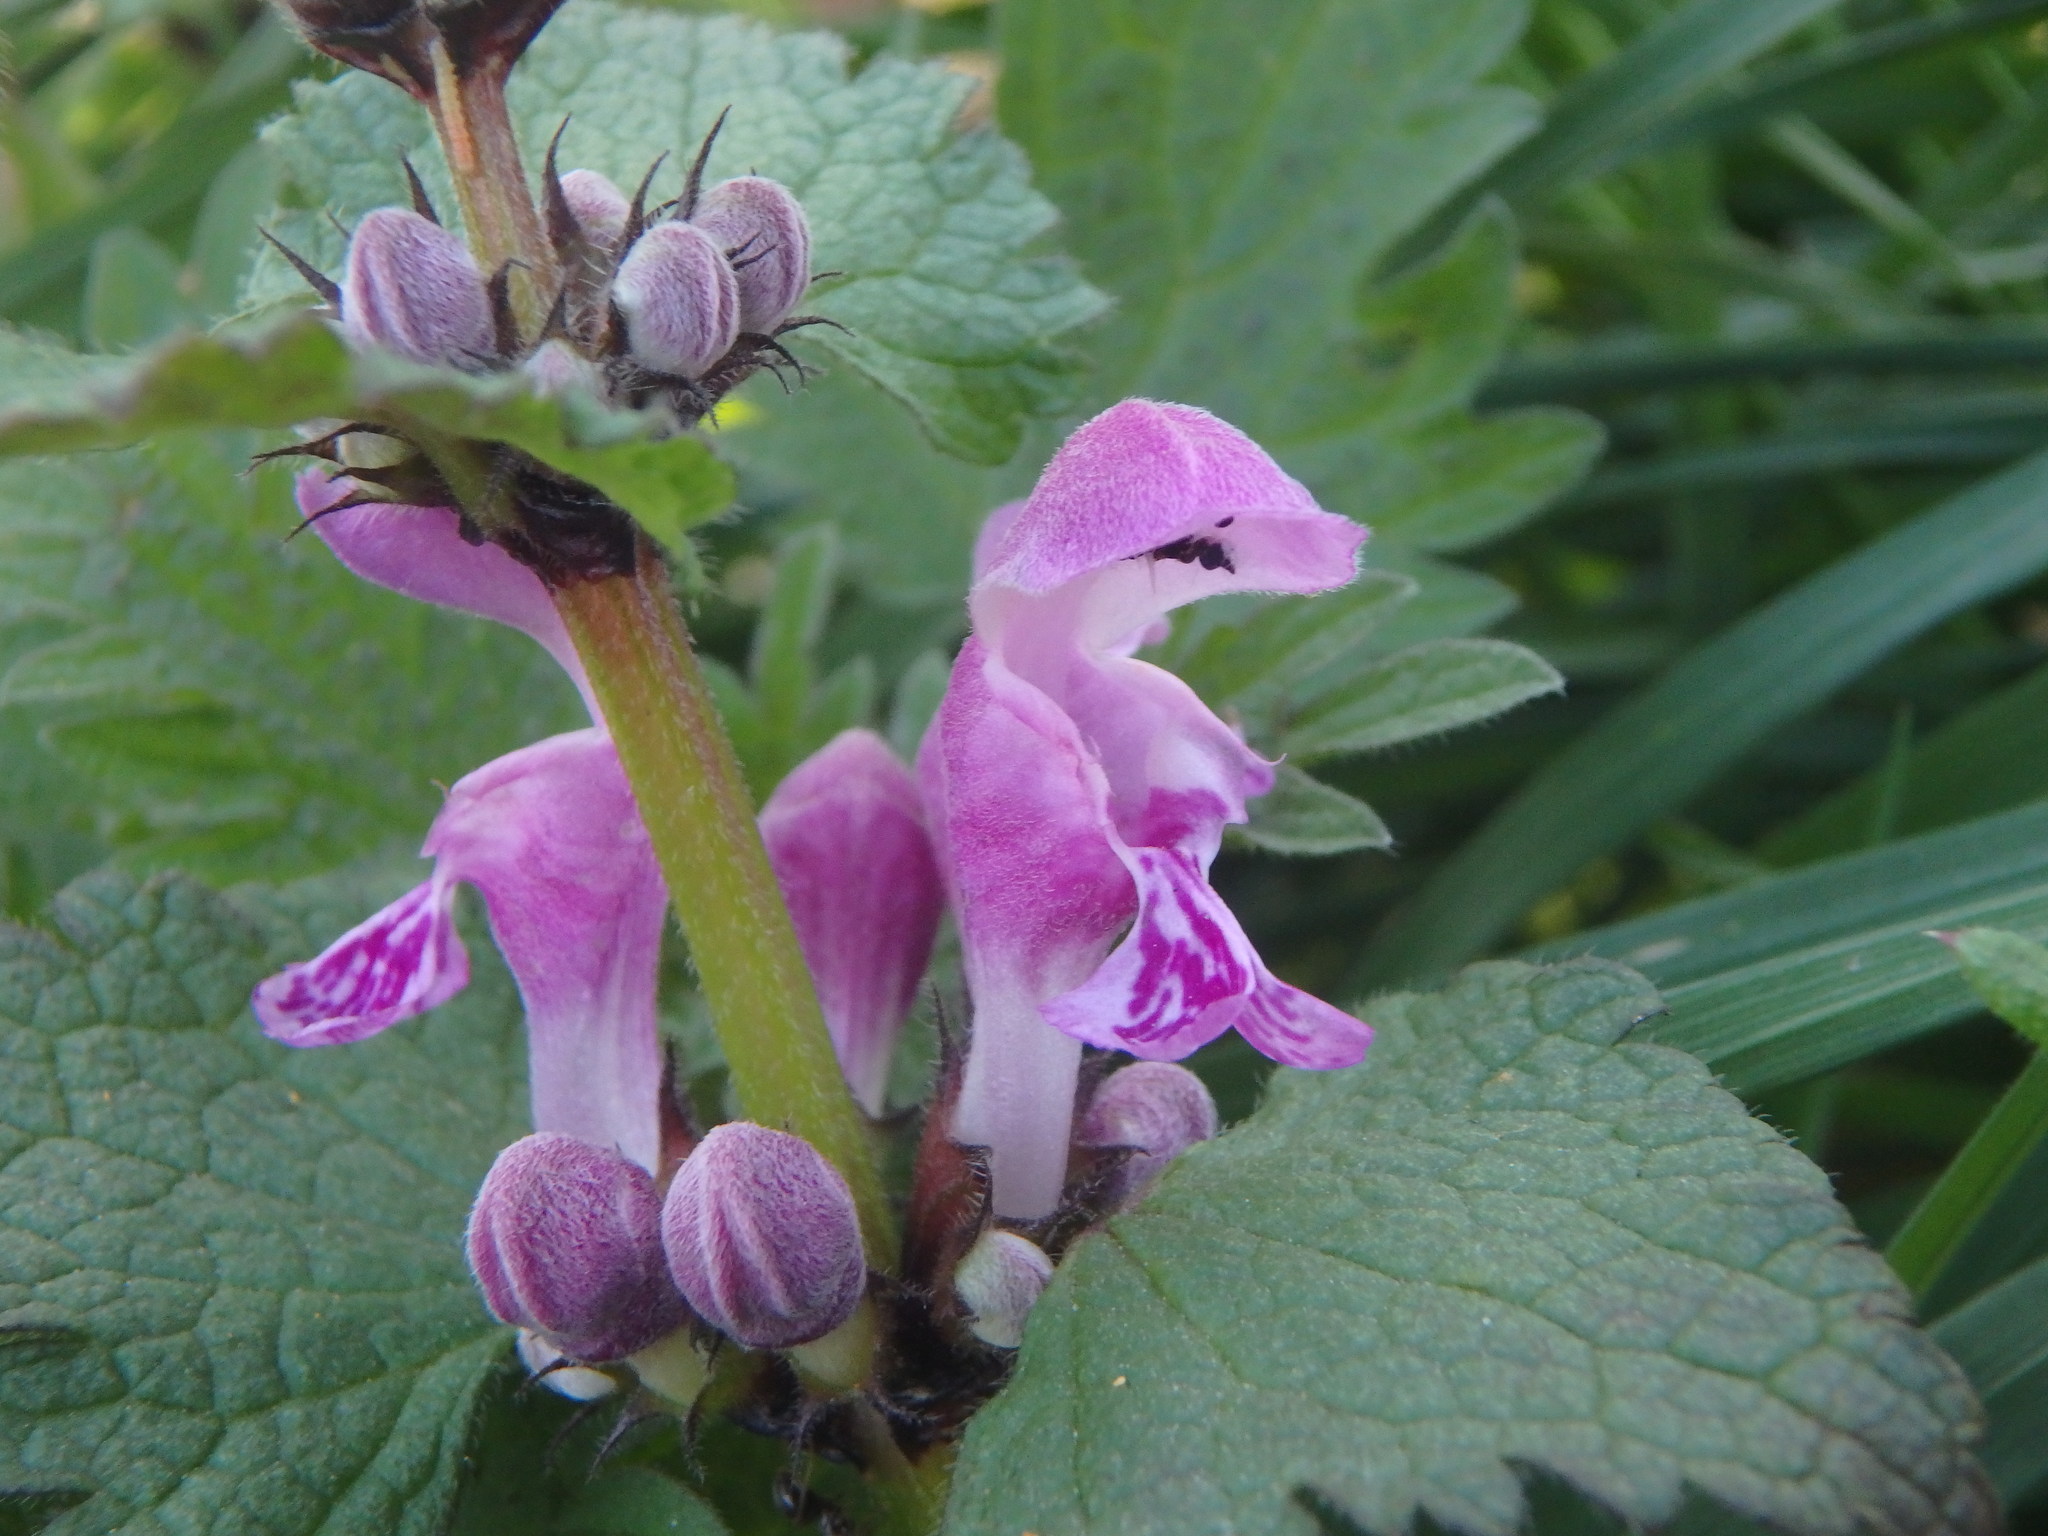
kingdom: Plantae
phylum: Tracheophyta
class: Magnoliopsida
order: Lamiales
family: Lamiaceae
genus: Lamium
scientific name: Lamium maculatum
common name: Spotted dead-nettle
